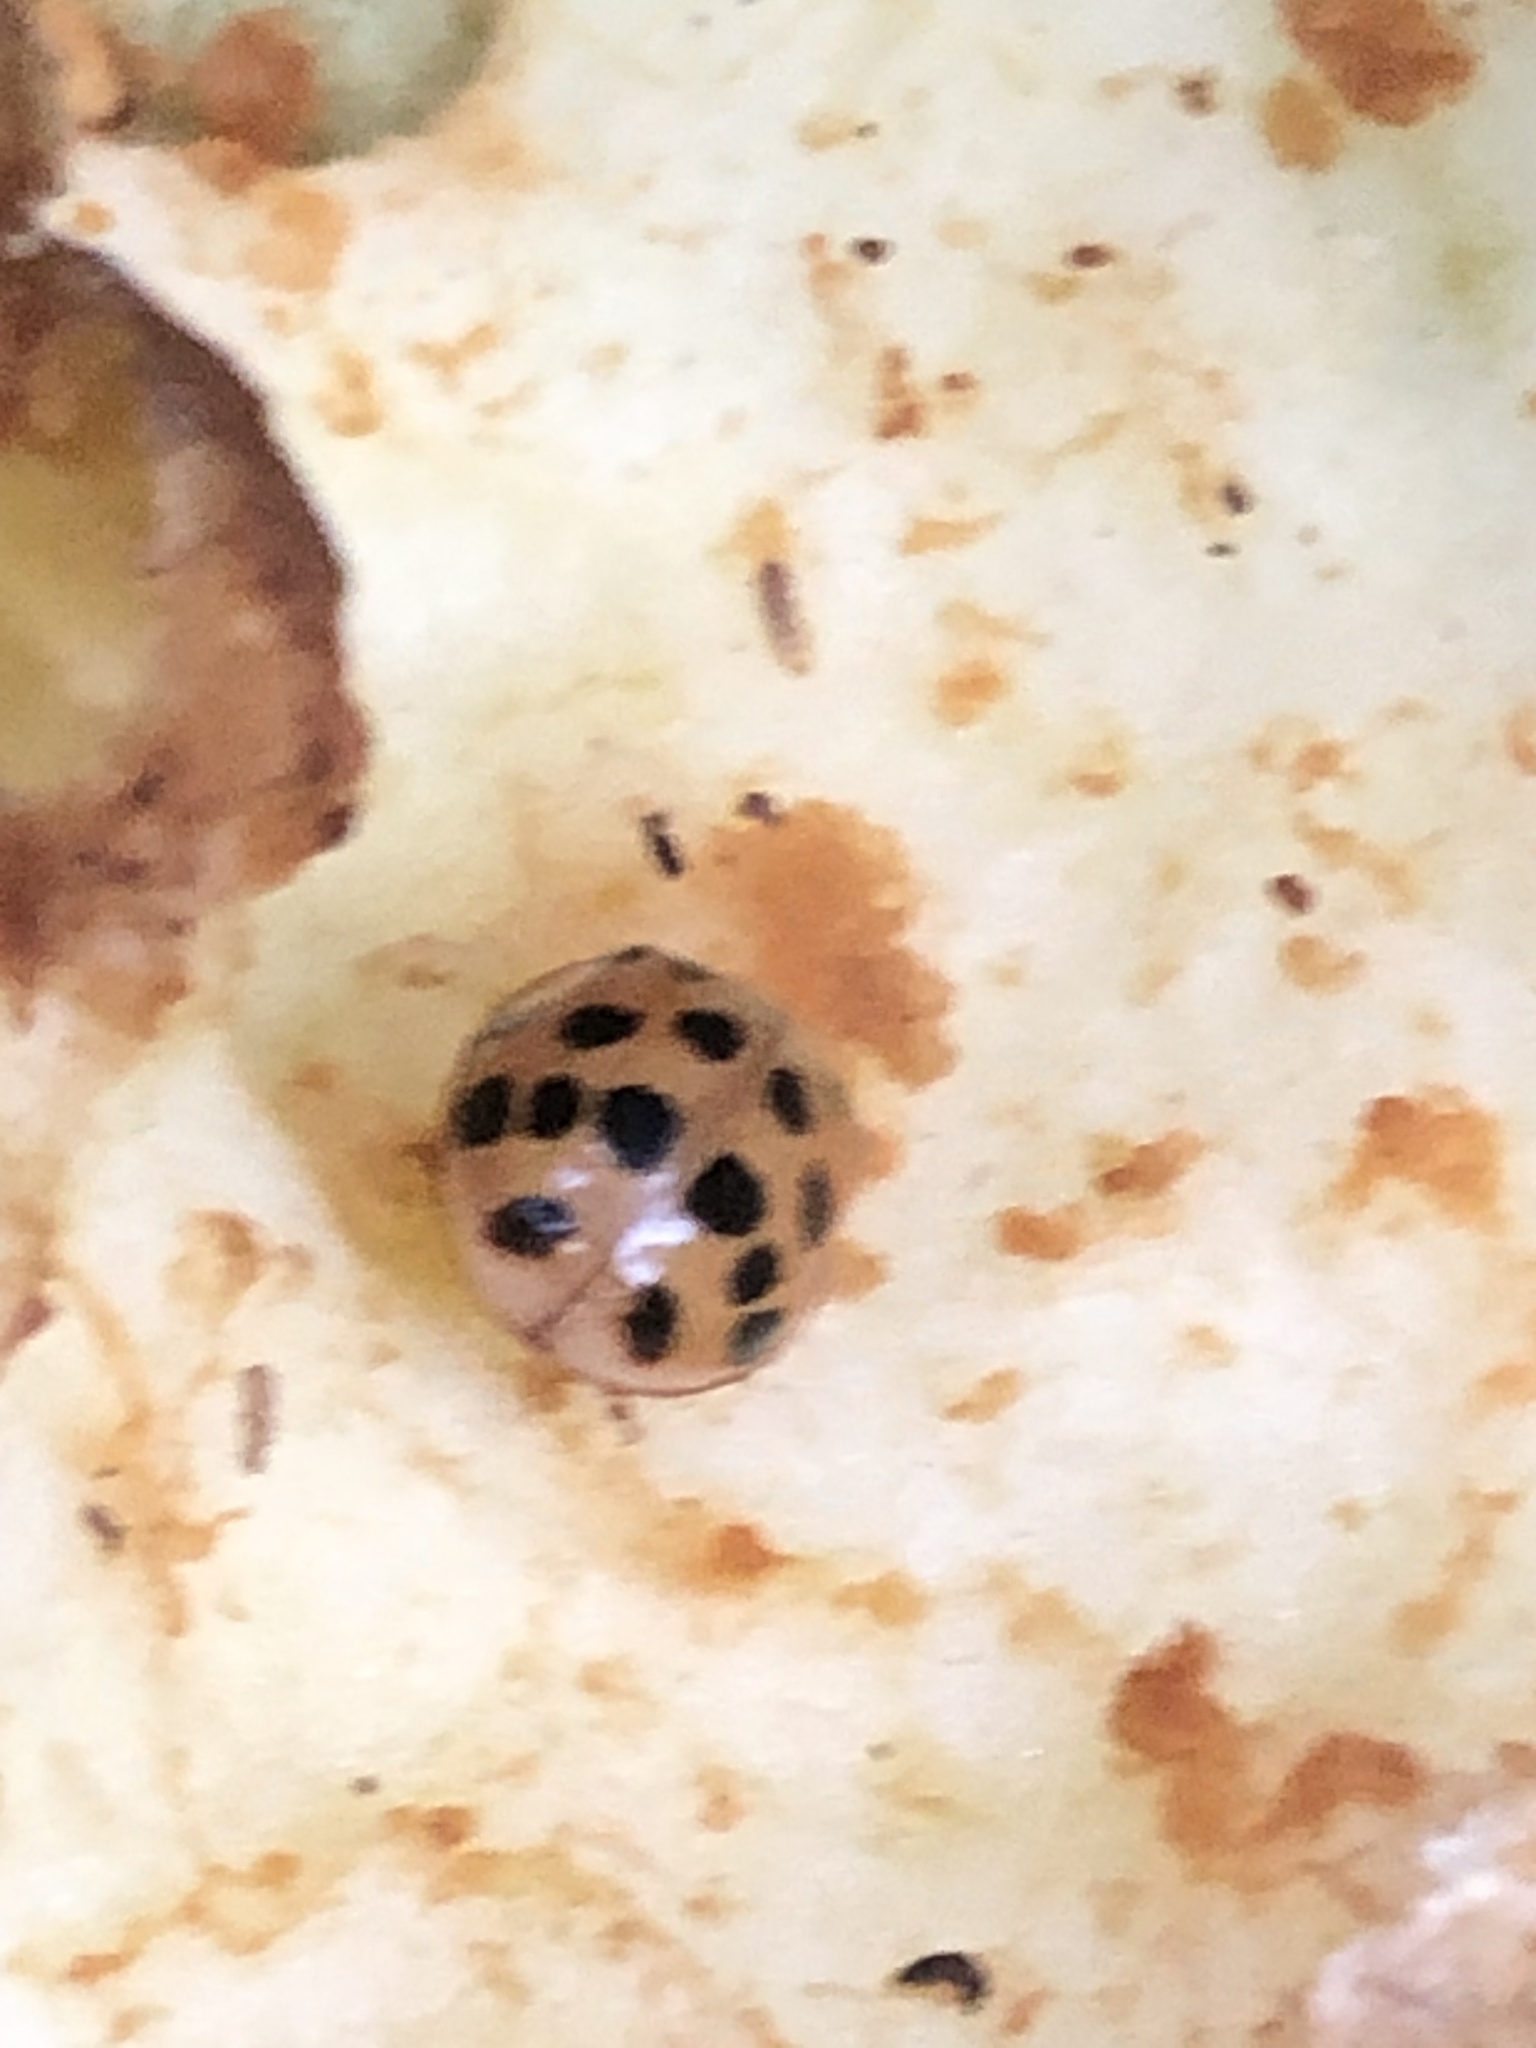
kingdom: Animalia
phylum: Arthropoda
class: Insecta
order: Coleoptera
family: Coccinellidae
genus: Harmonia
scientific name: Harmonia axyridis
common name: Harlequin ladybird
